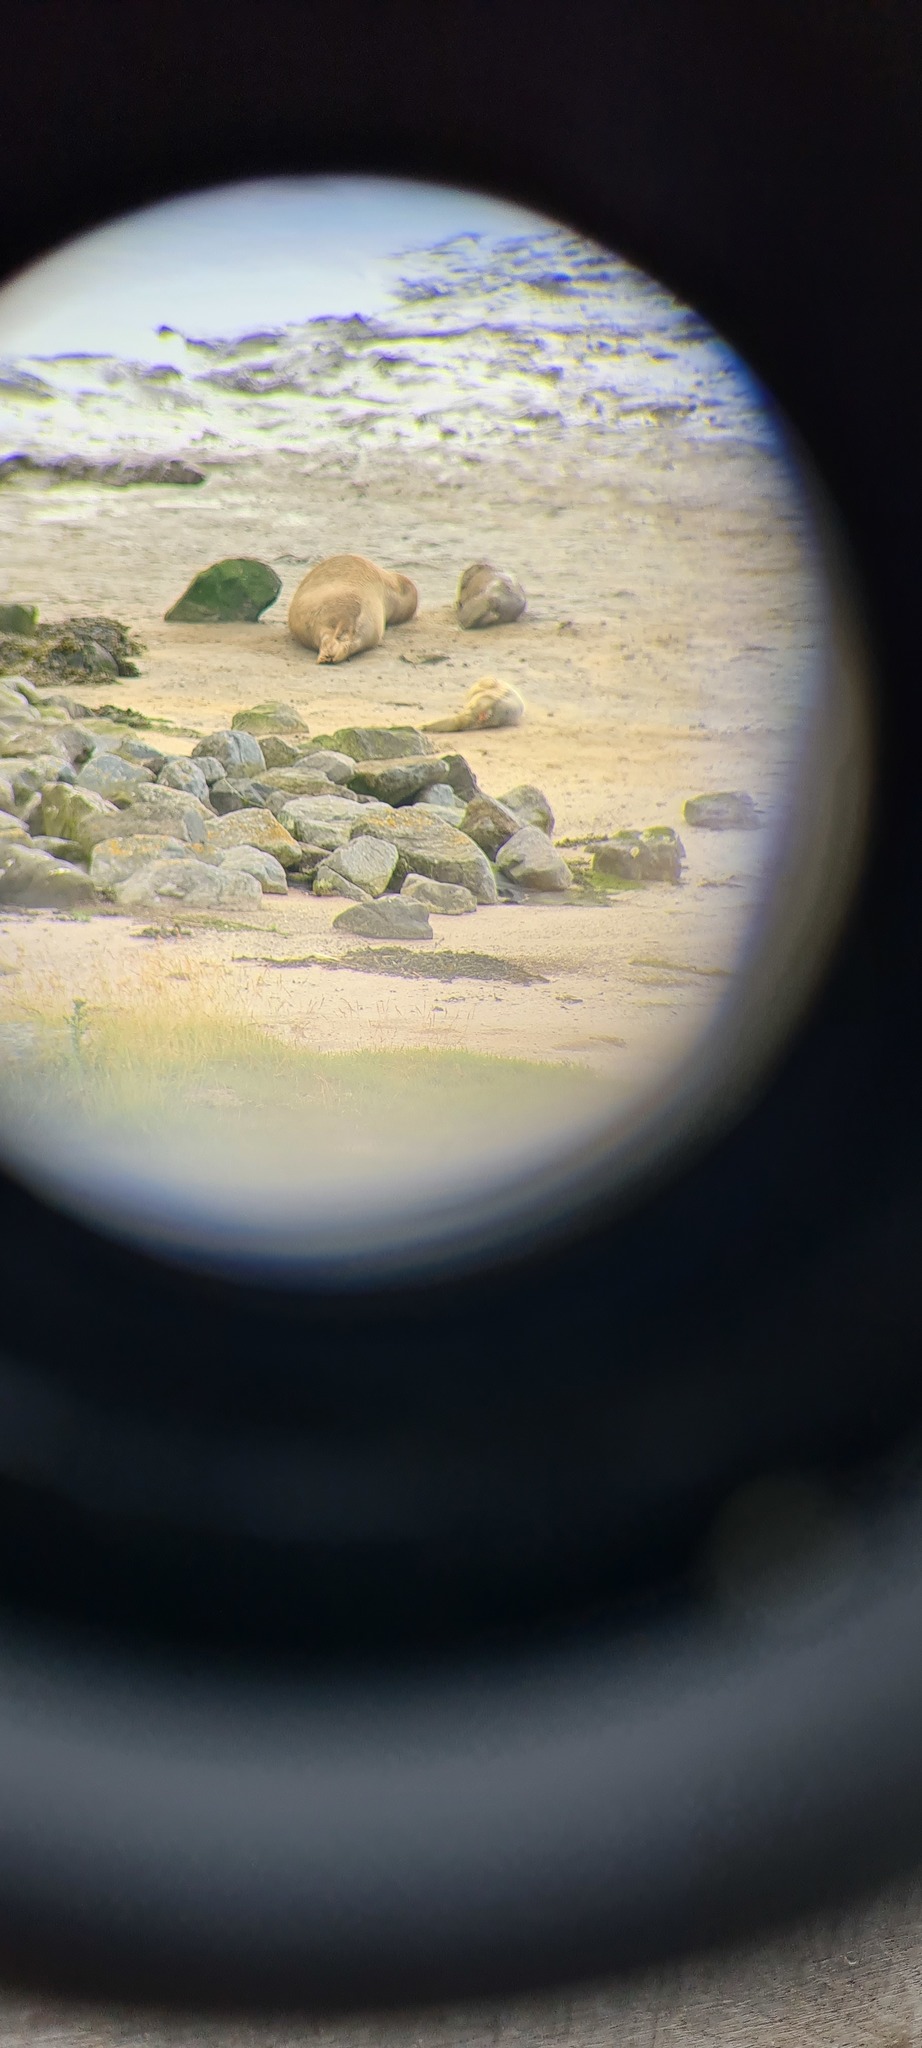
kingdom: Animalia
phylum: Chordata
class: Mammalia
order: Carnivora
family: Phocidae
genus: Phoca
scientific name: Phoca vitulina
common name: Harbor seal
